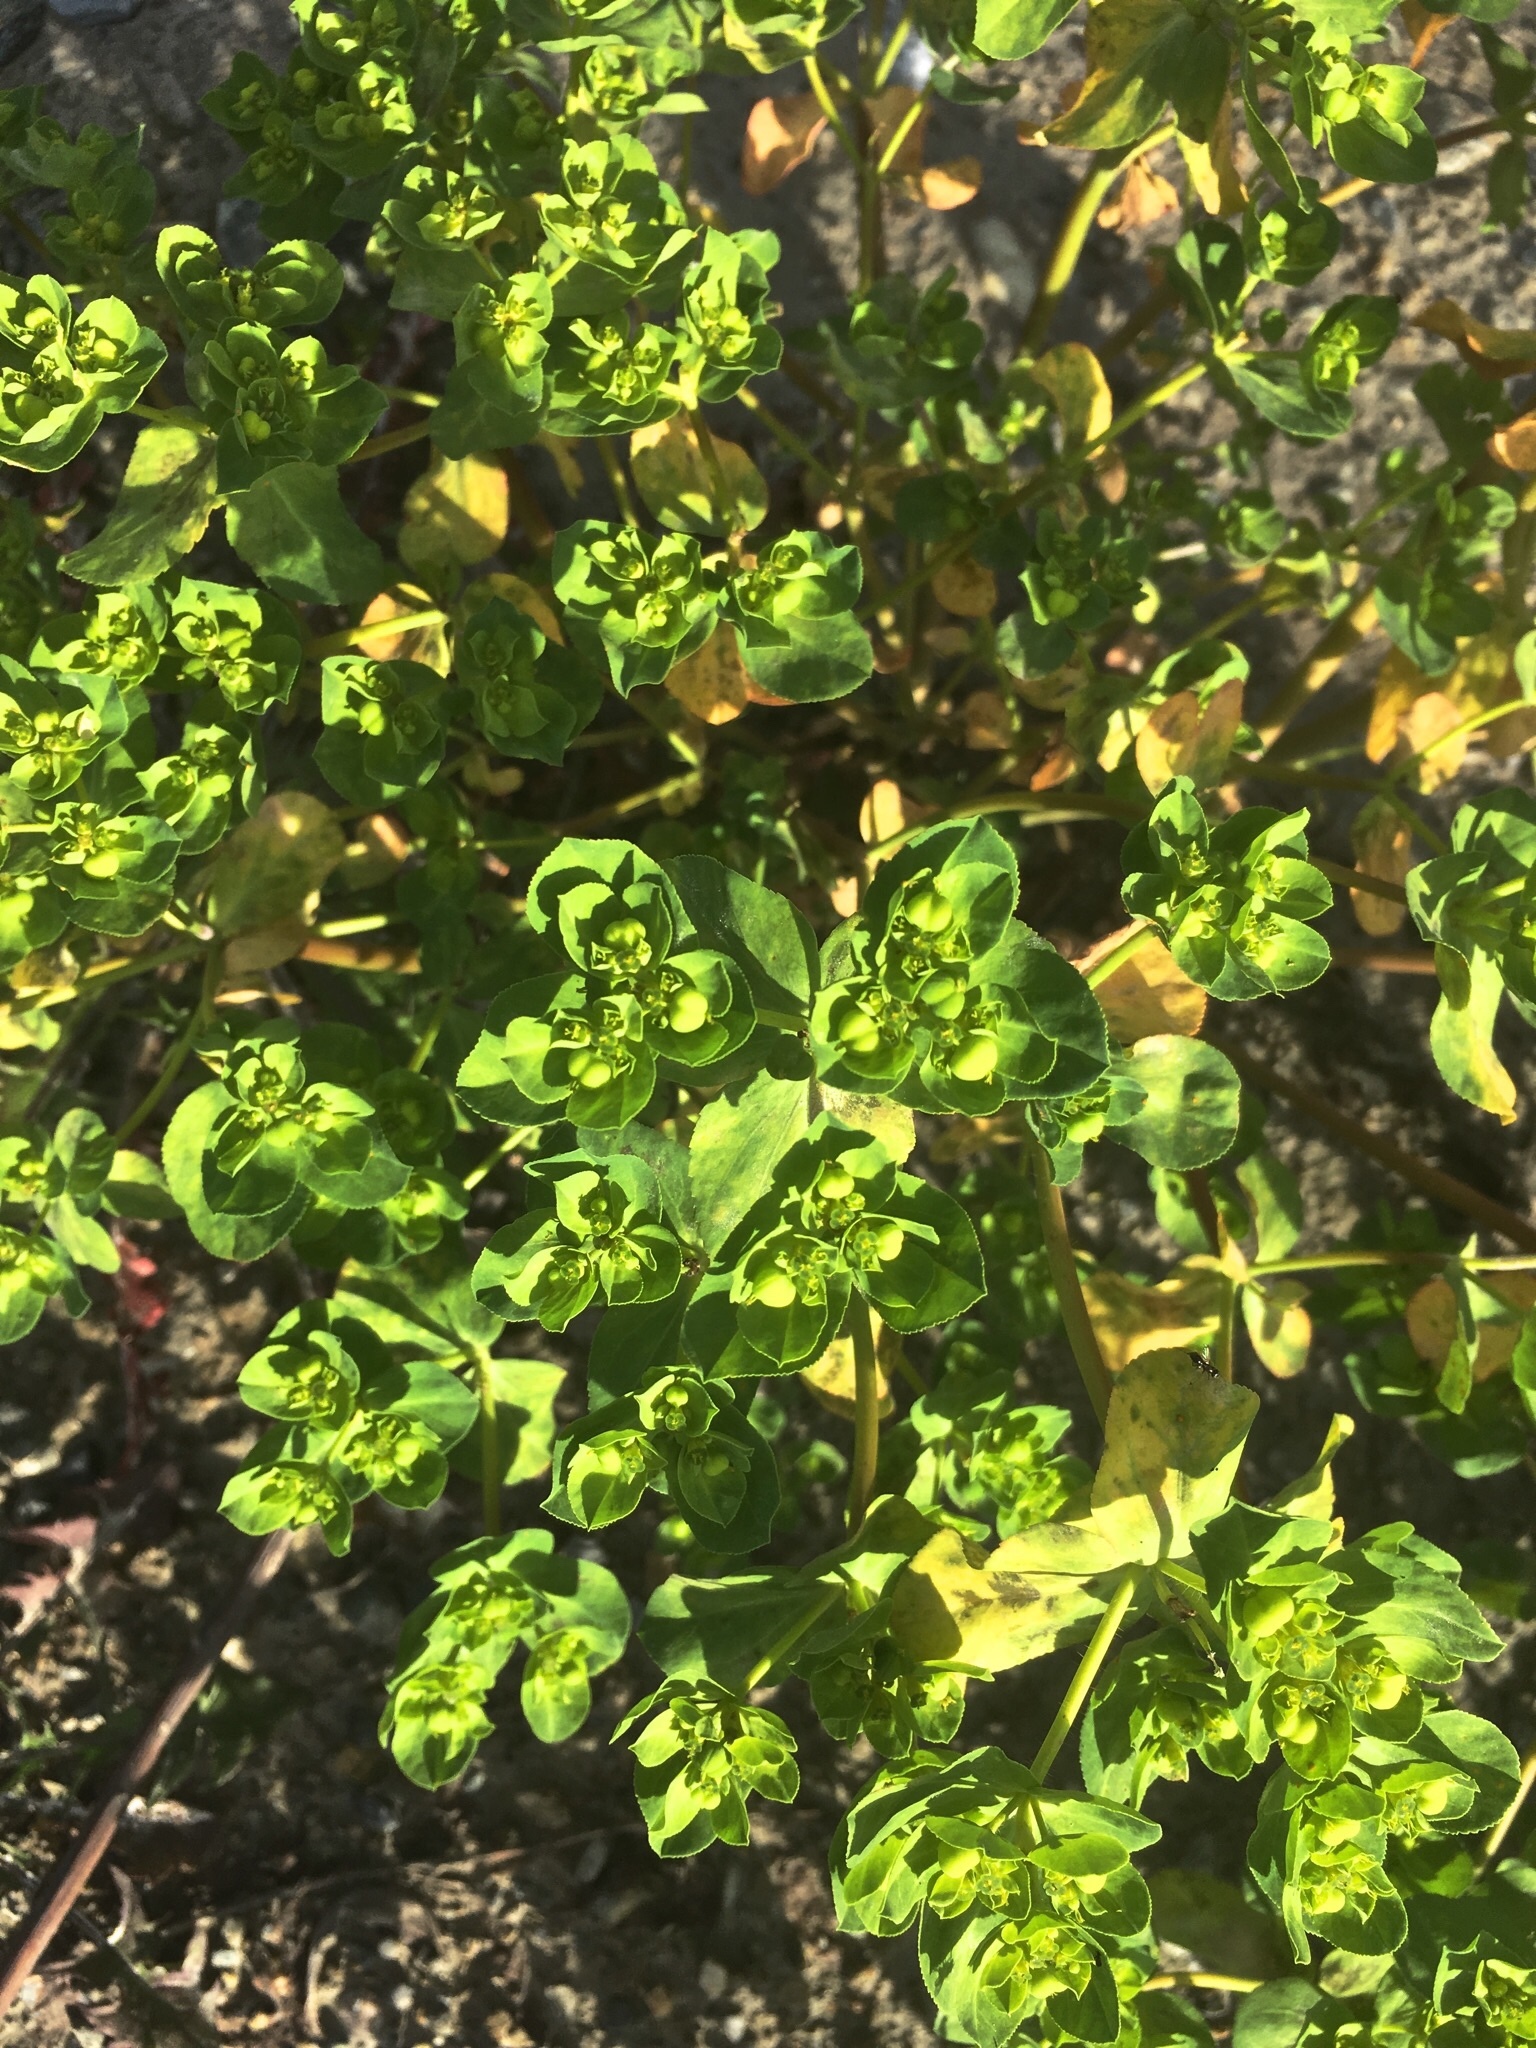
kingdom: Plantae
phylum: Tracheophyta
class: Magnoliopsida
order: Malpighiales
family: Euphorbiaceae
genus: Euphorbia
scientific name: Euphorbia helioscopia
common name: Sun spurge
